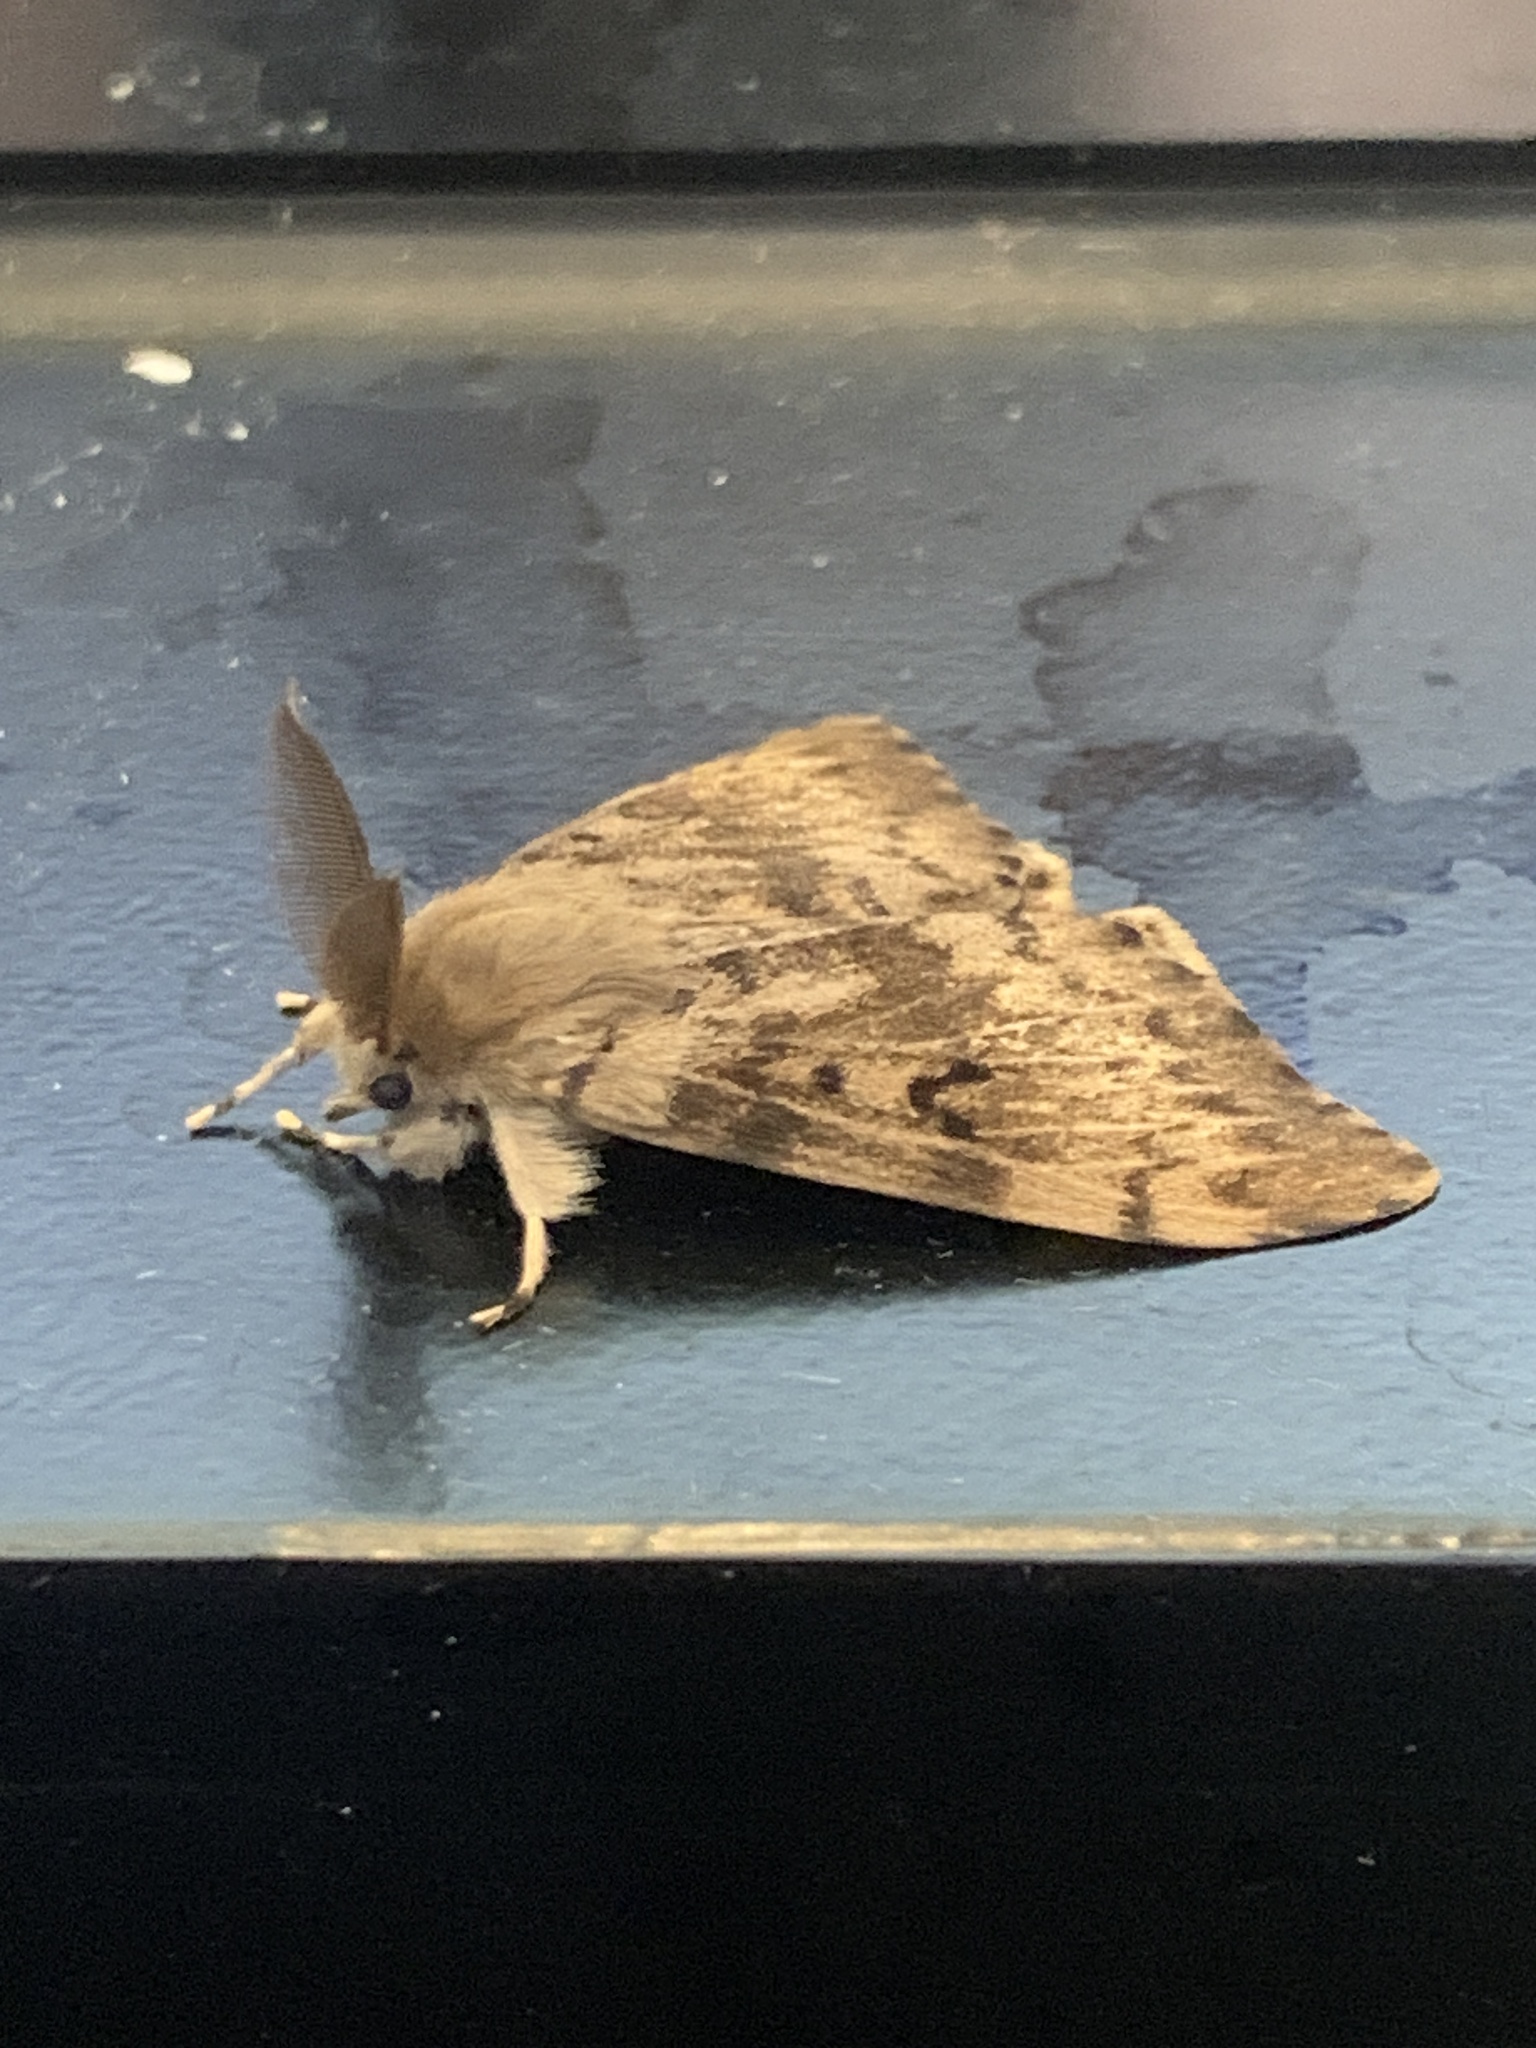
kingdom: Animalia
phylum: Arthropoda
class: Insecta
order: Lepidoptera
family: Erebidae
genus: Lymantria
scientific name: Lymantria dispar
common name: Gypsy moth
